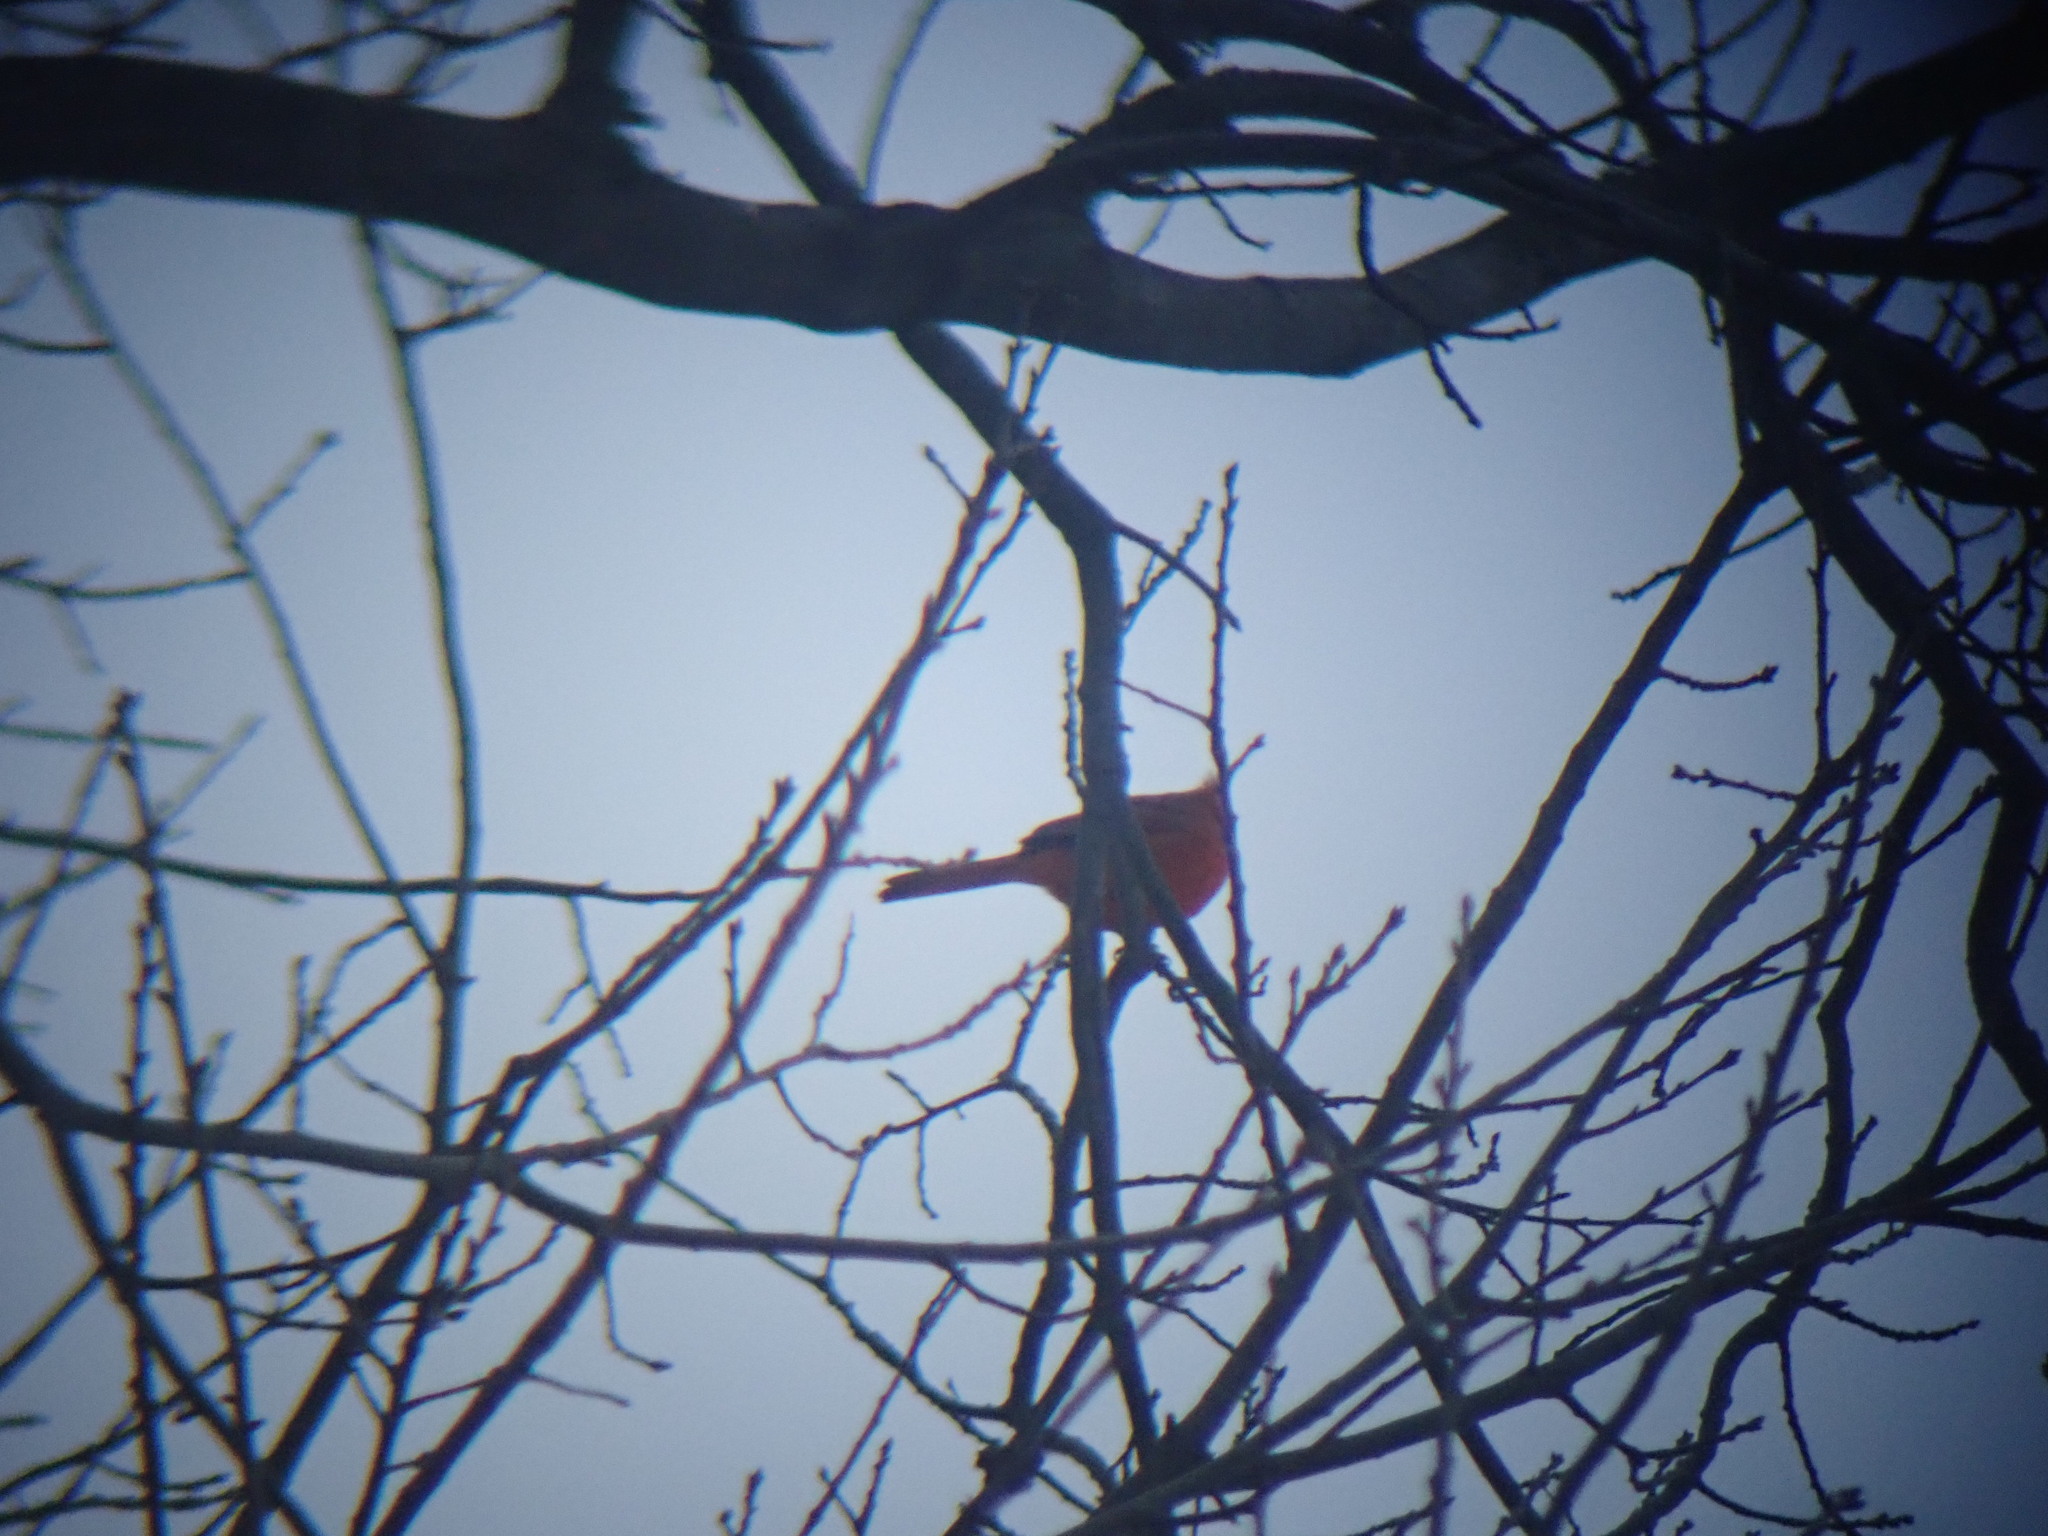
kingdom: Animalia
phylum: Chordata
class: Aves
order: Passeriformes
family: Cardinalidae
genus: Cardinalis
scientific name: Cardinalis cardinalis
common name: Northern cardinal
